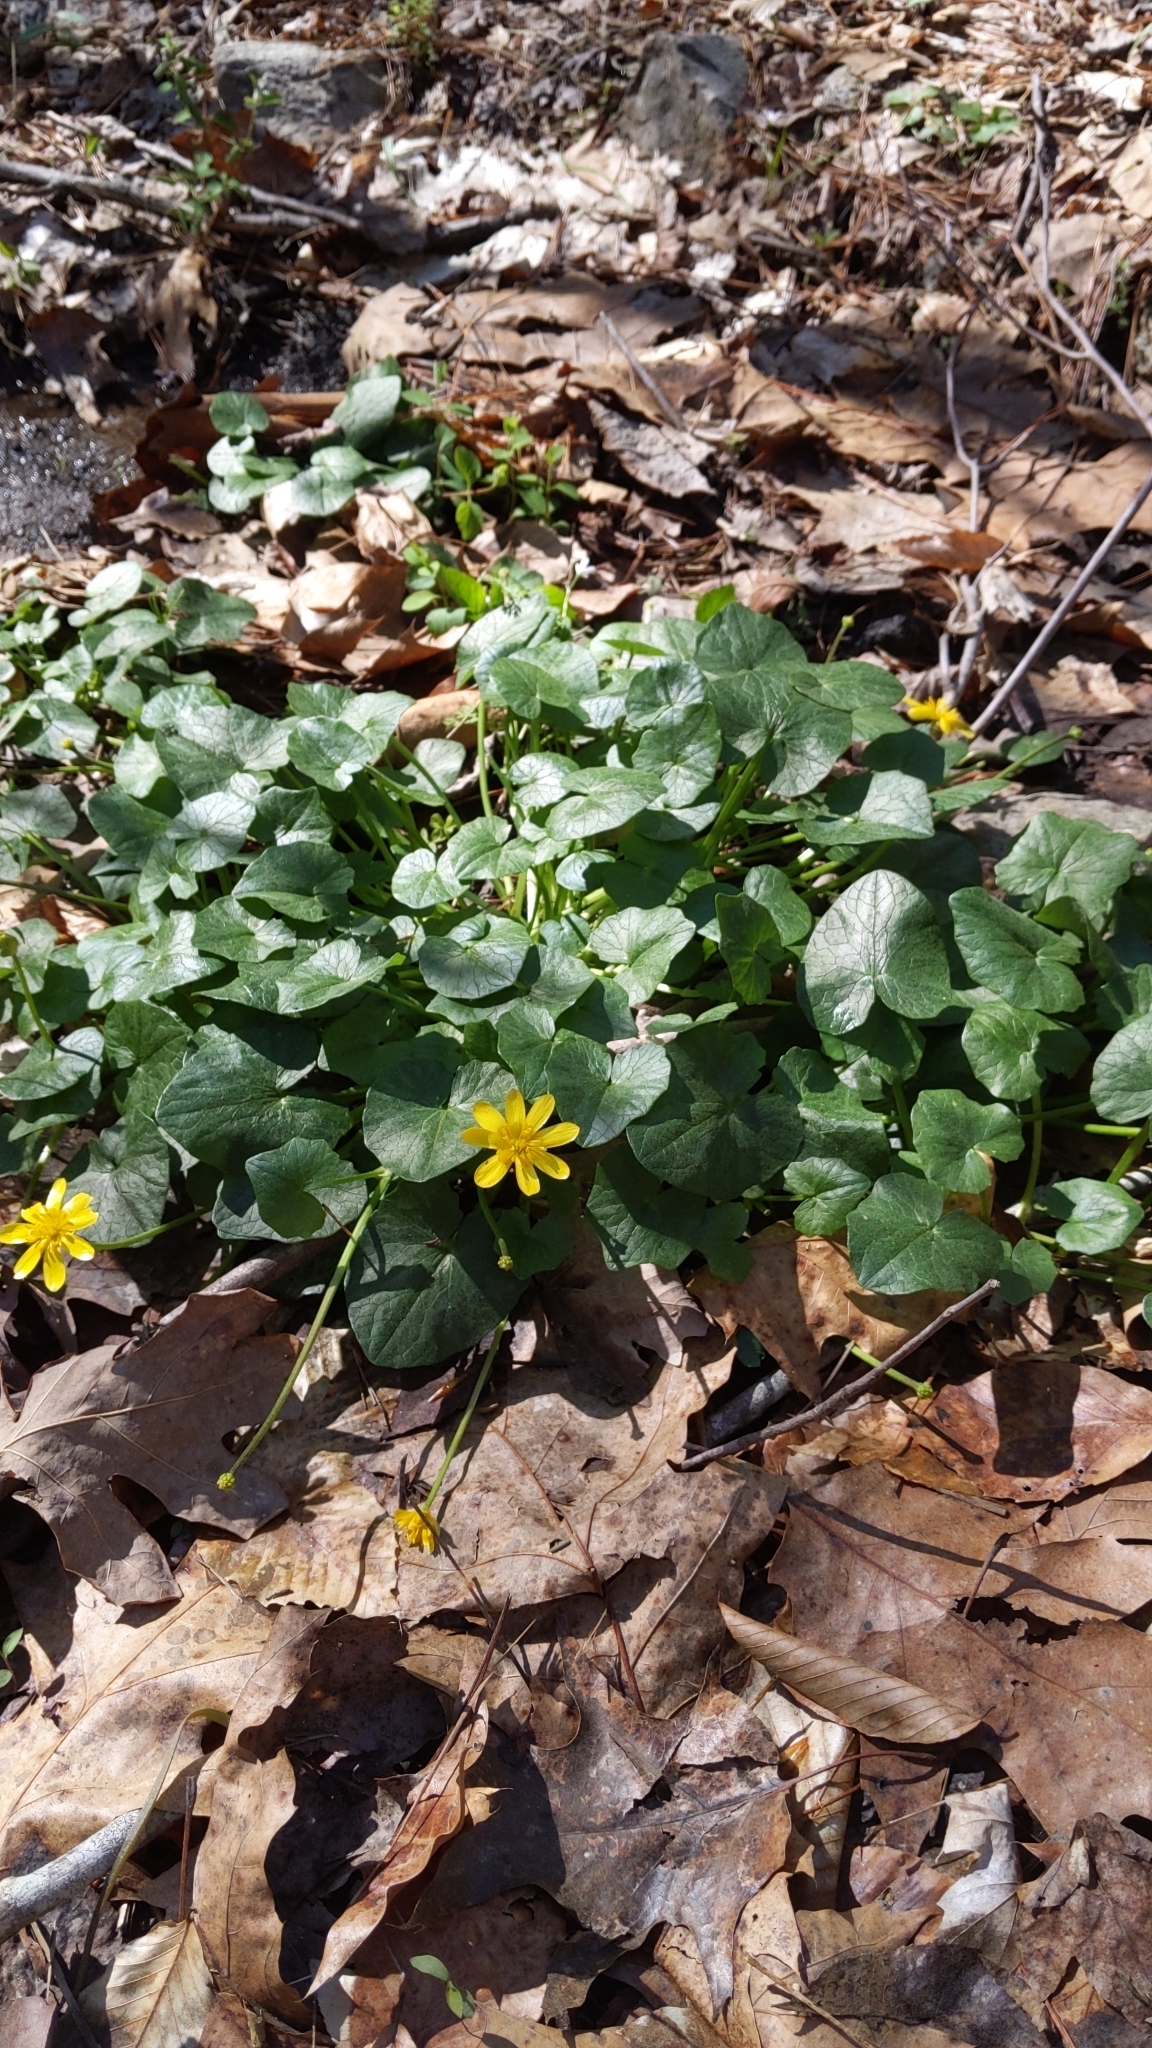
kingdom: Plantae
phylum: Tracheophyta
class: Magnoliopsida
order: Ranunculales
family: Ranunculaceae
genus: Ficaria
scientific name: Ficaria verna
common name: Lesser celandine
